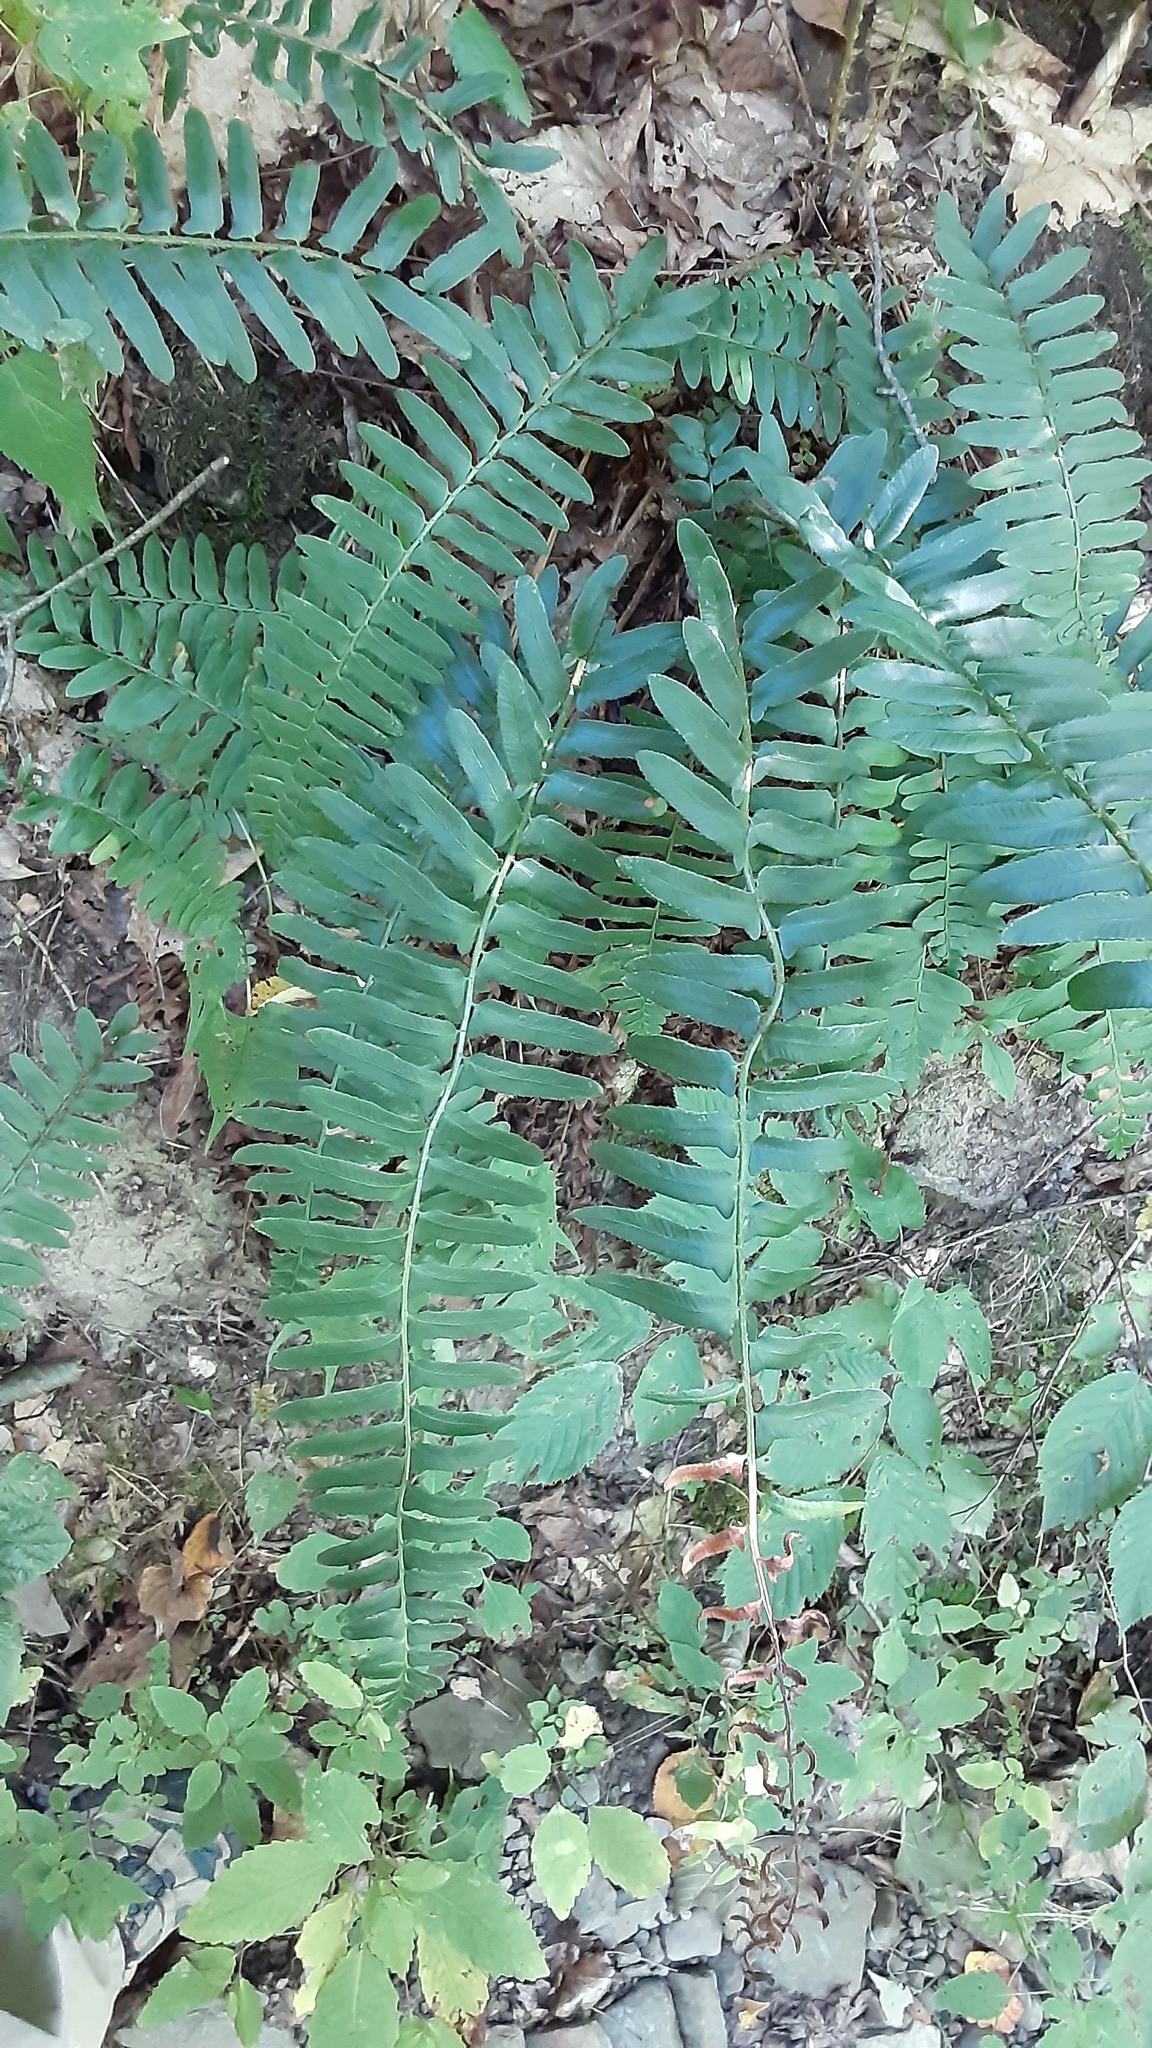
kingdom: Plantae
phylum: Tracheophyta
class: Polypodiopsida
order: Polypodiales
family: Dryopteridaceae
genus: Polystichum
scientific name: Polystichum acrostichoides
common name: Christmas fern
